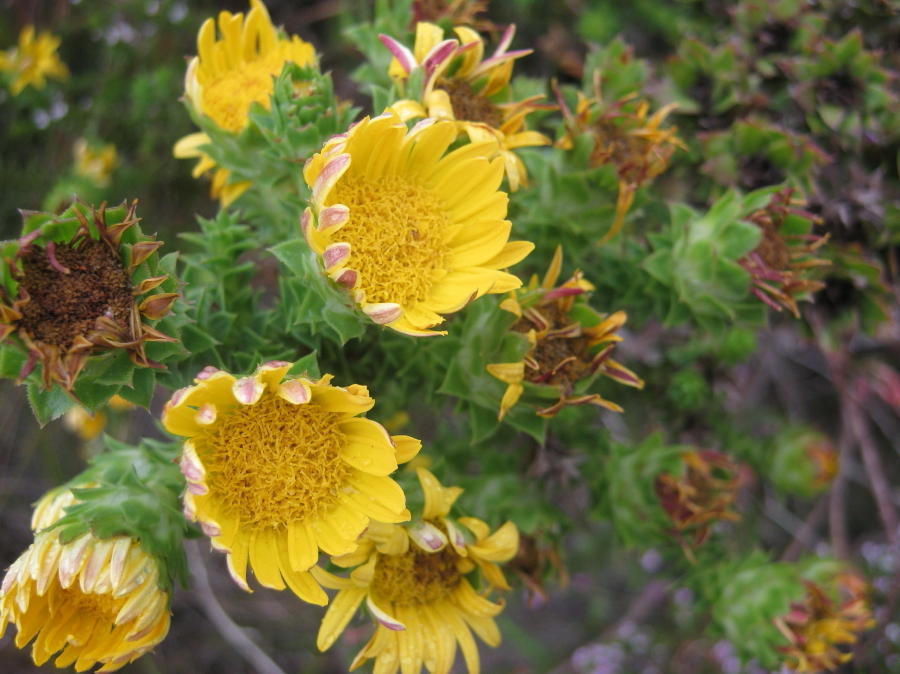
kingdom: Plantae
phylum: Tracheophyta
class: Magnoliopsida
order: Asterales
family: Asteraceae
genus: Oedera
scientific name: Oedera imbricata
